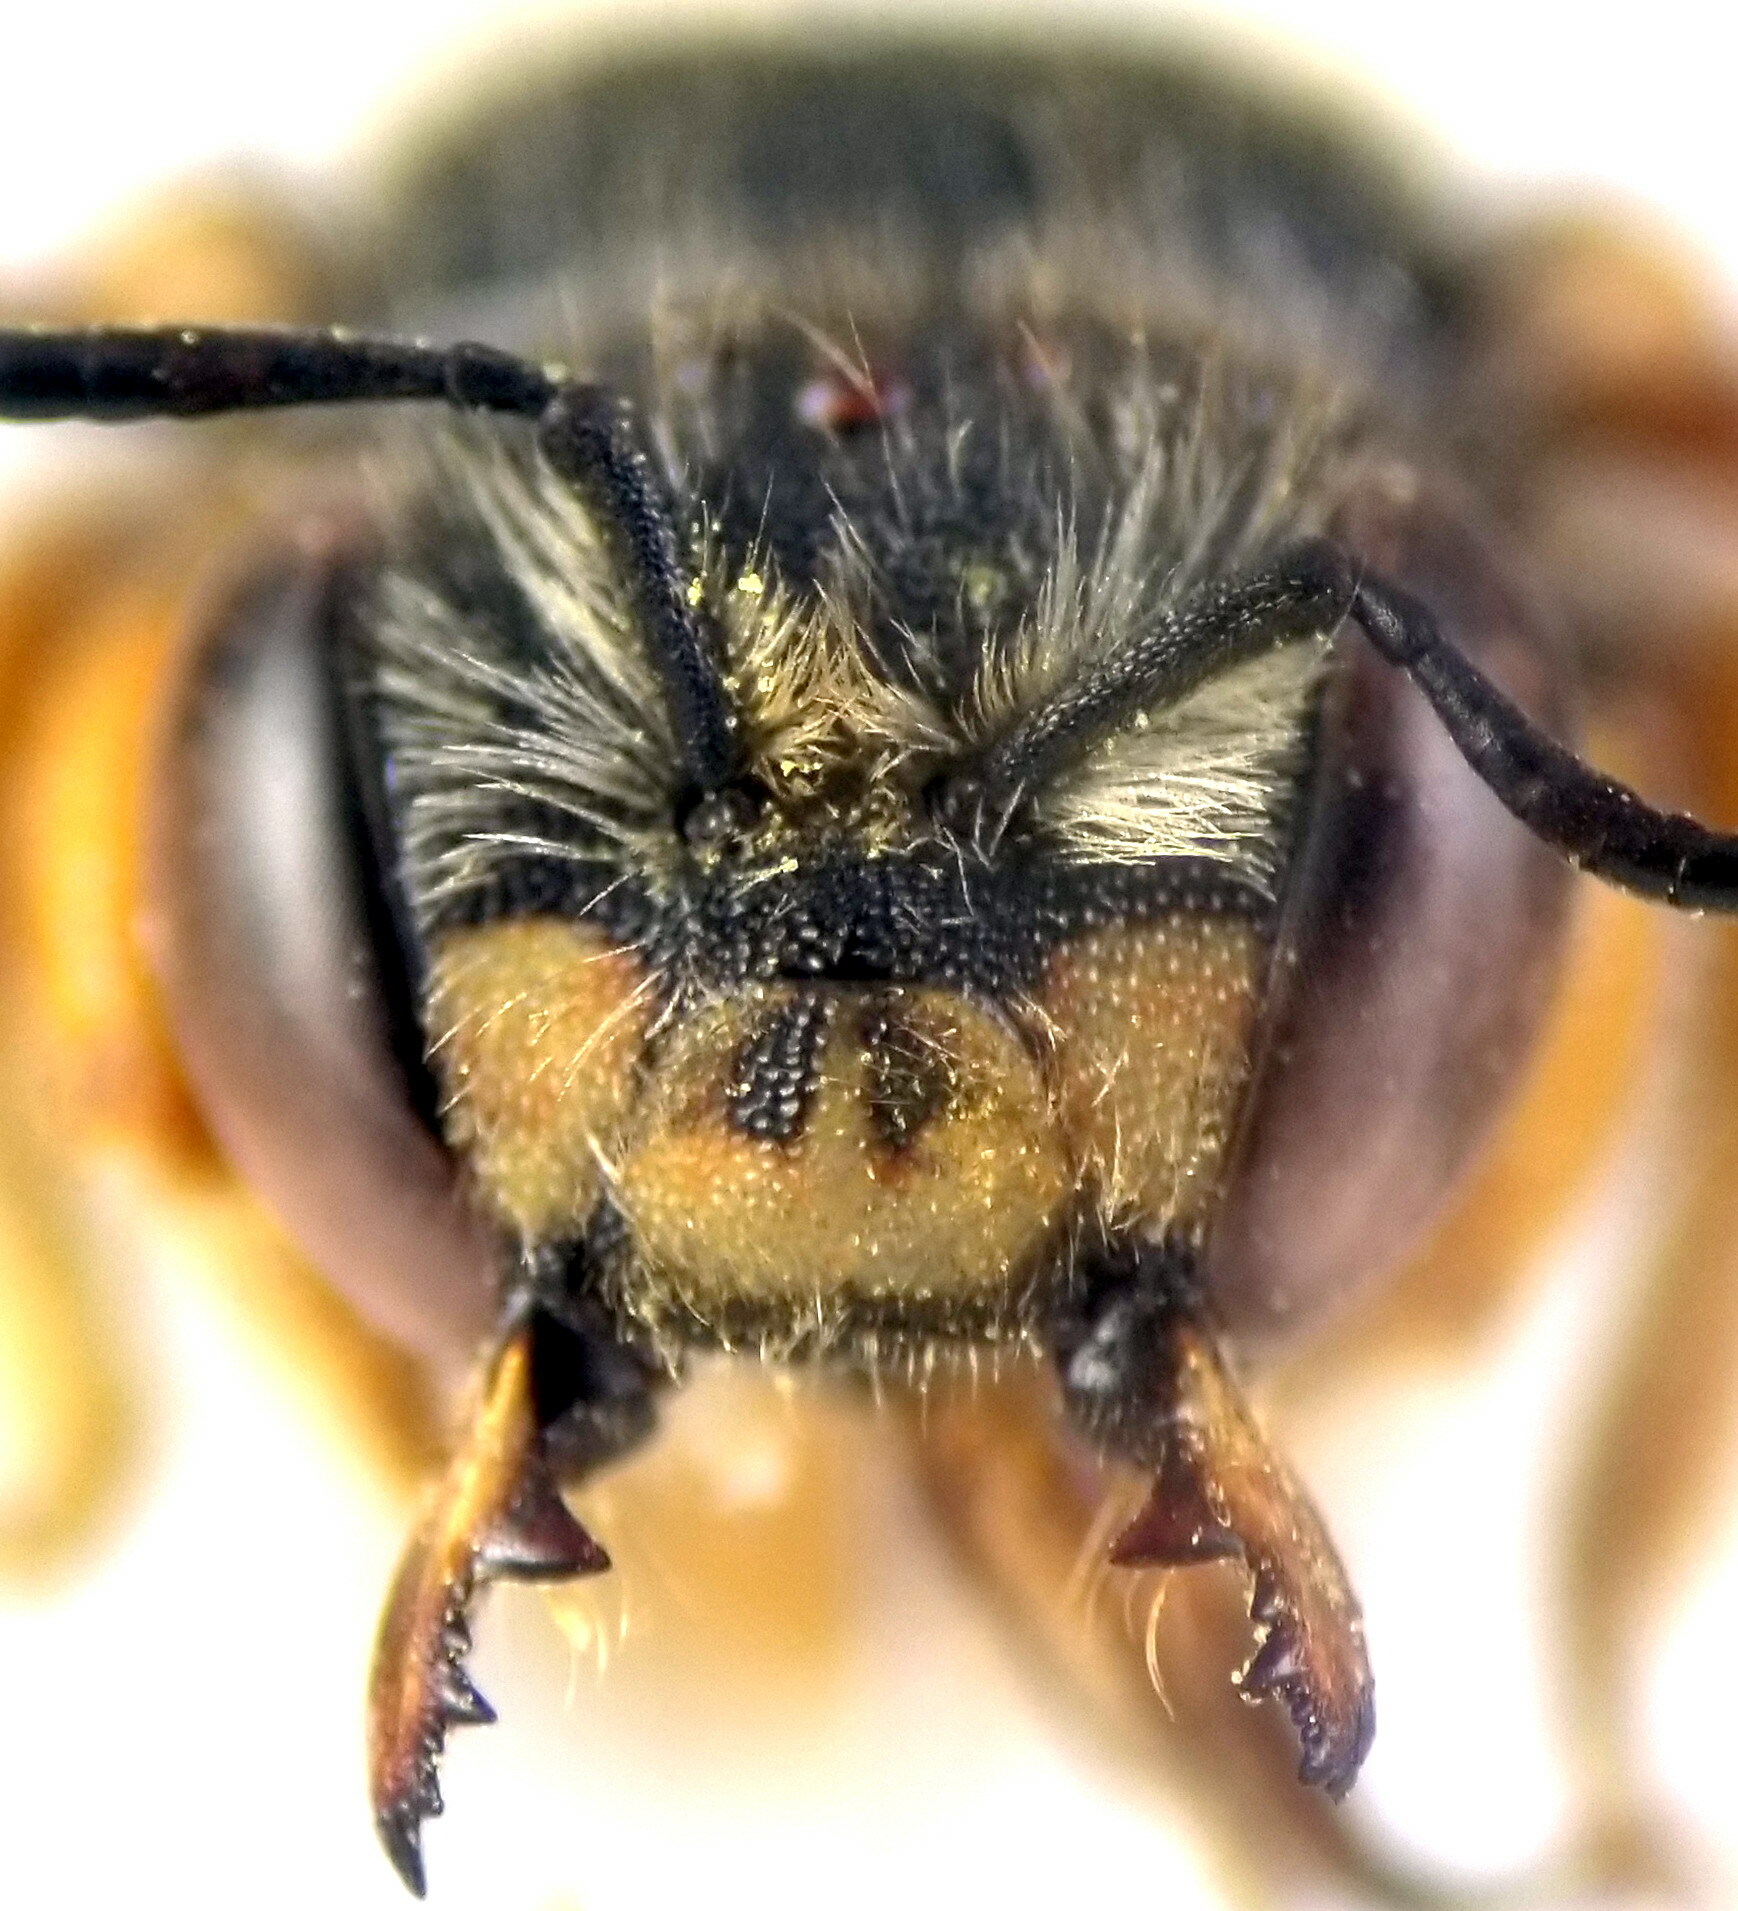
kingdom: Animalia
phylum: Arthropoda
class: Insecta
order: Hymenoptera
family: Megachilidae
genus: Anthidium
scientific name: Anthidium oblongatum
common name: Oblong wool carder bee
